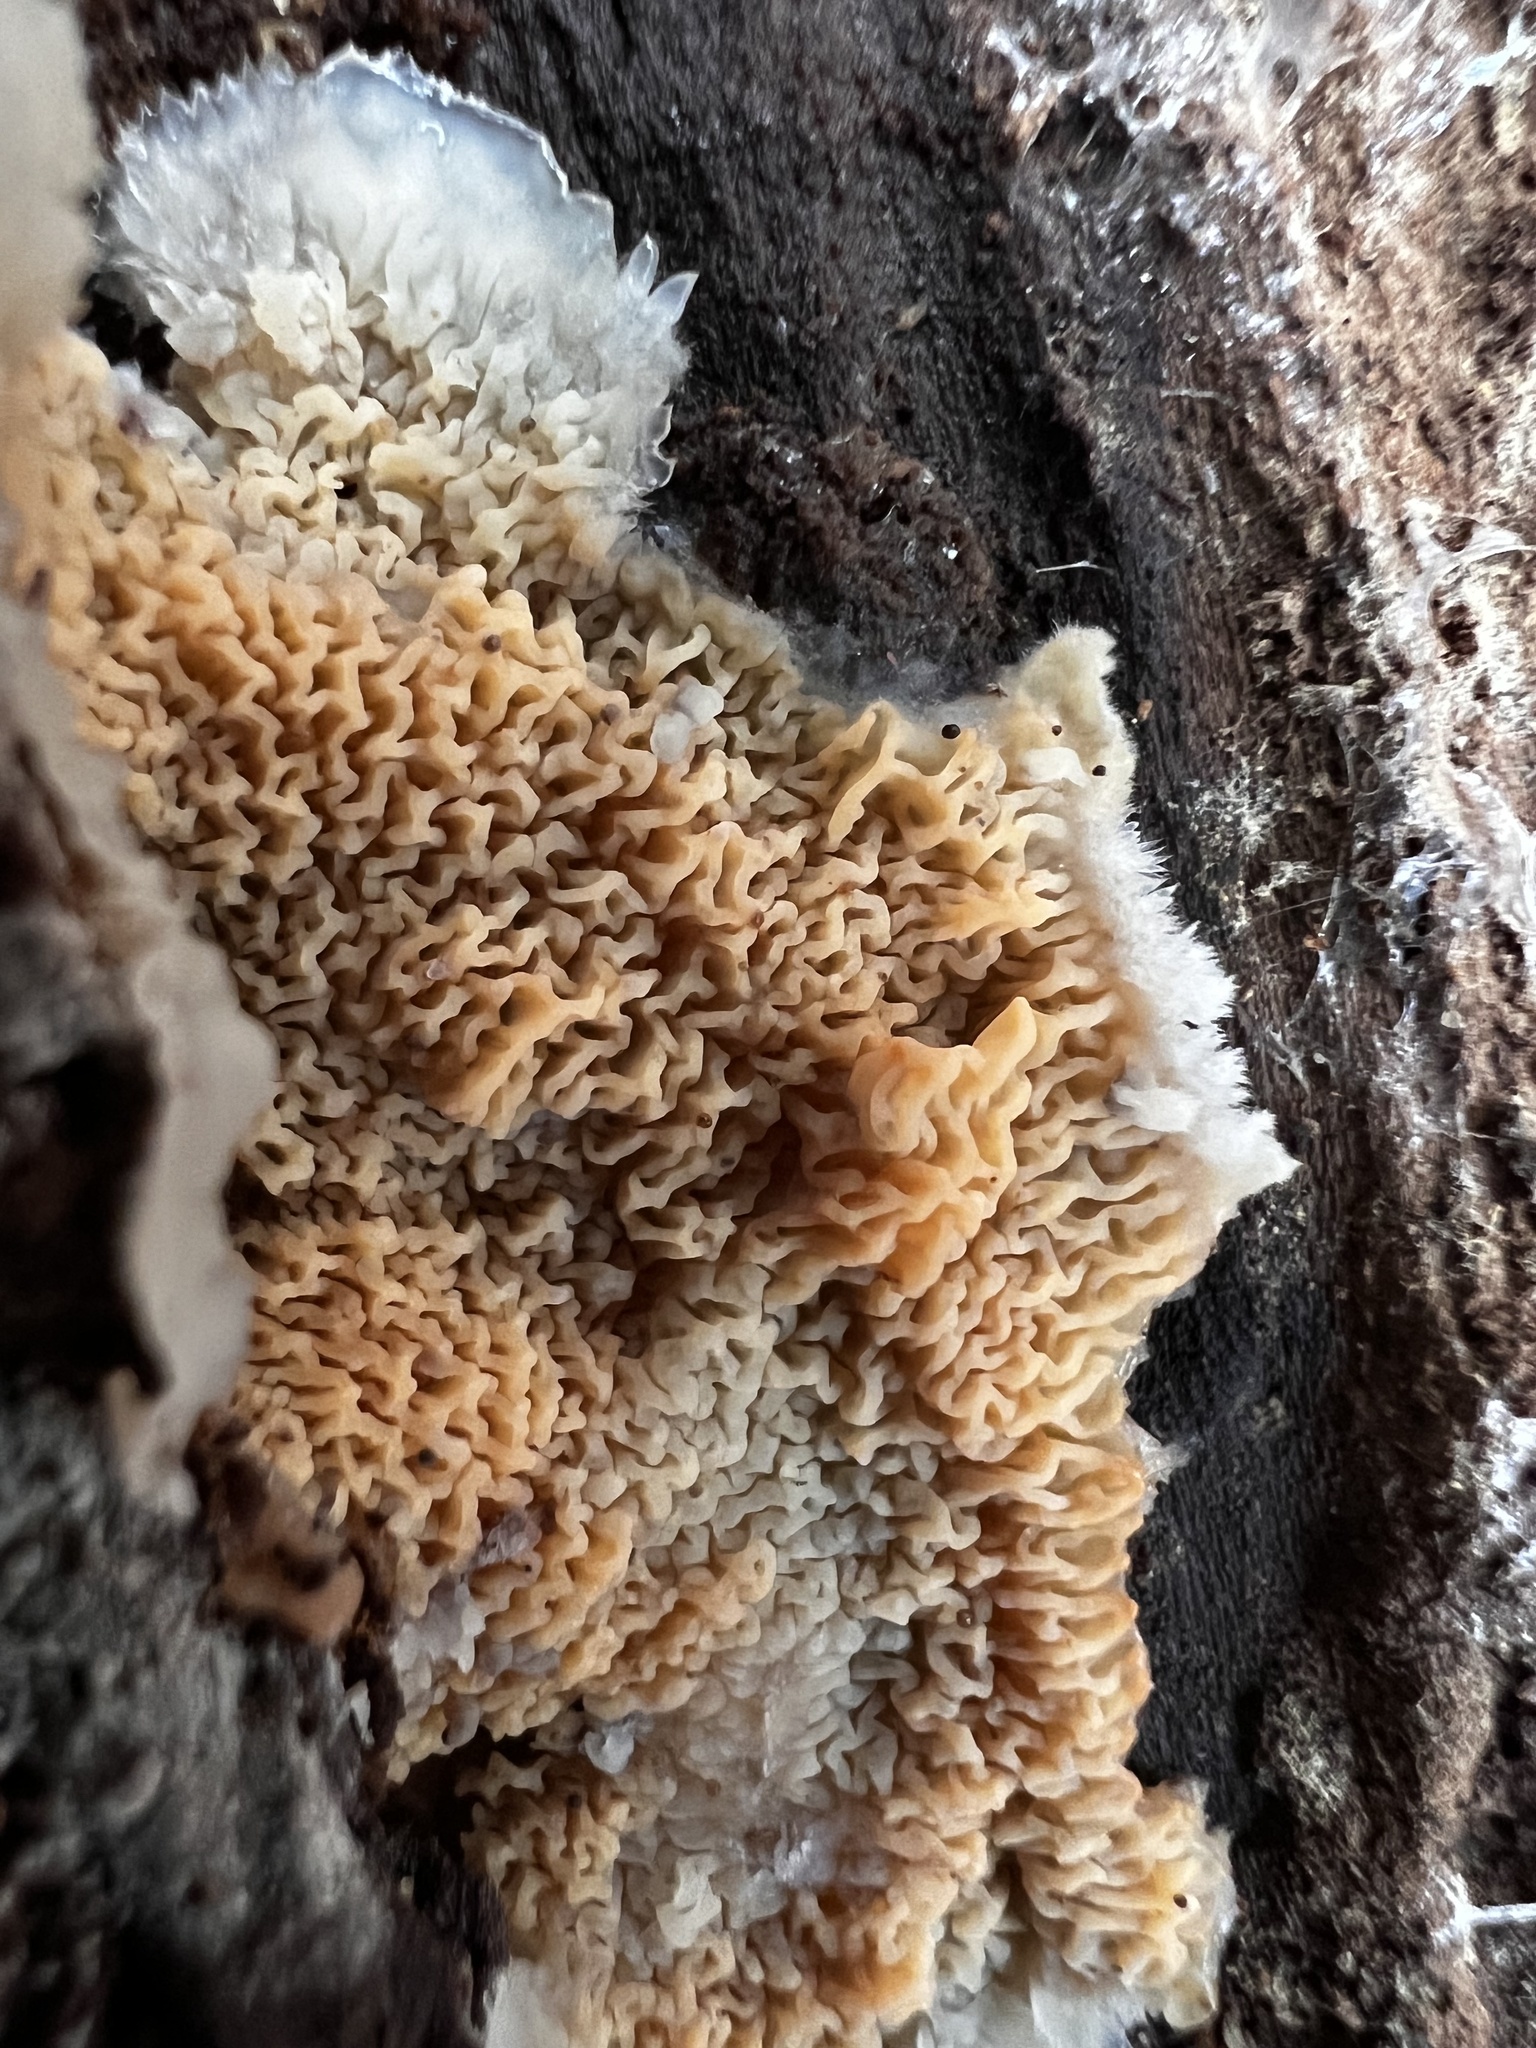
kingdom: Fungi
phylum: Basidiomycota
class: Agaricomycetes
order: Polyporales
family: Meruliaceae
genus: Phlebia
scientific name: Phlebia tremellosa
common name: Jelly rot
